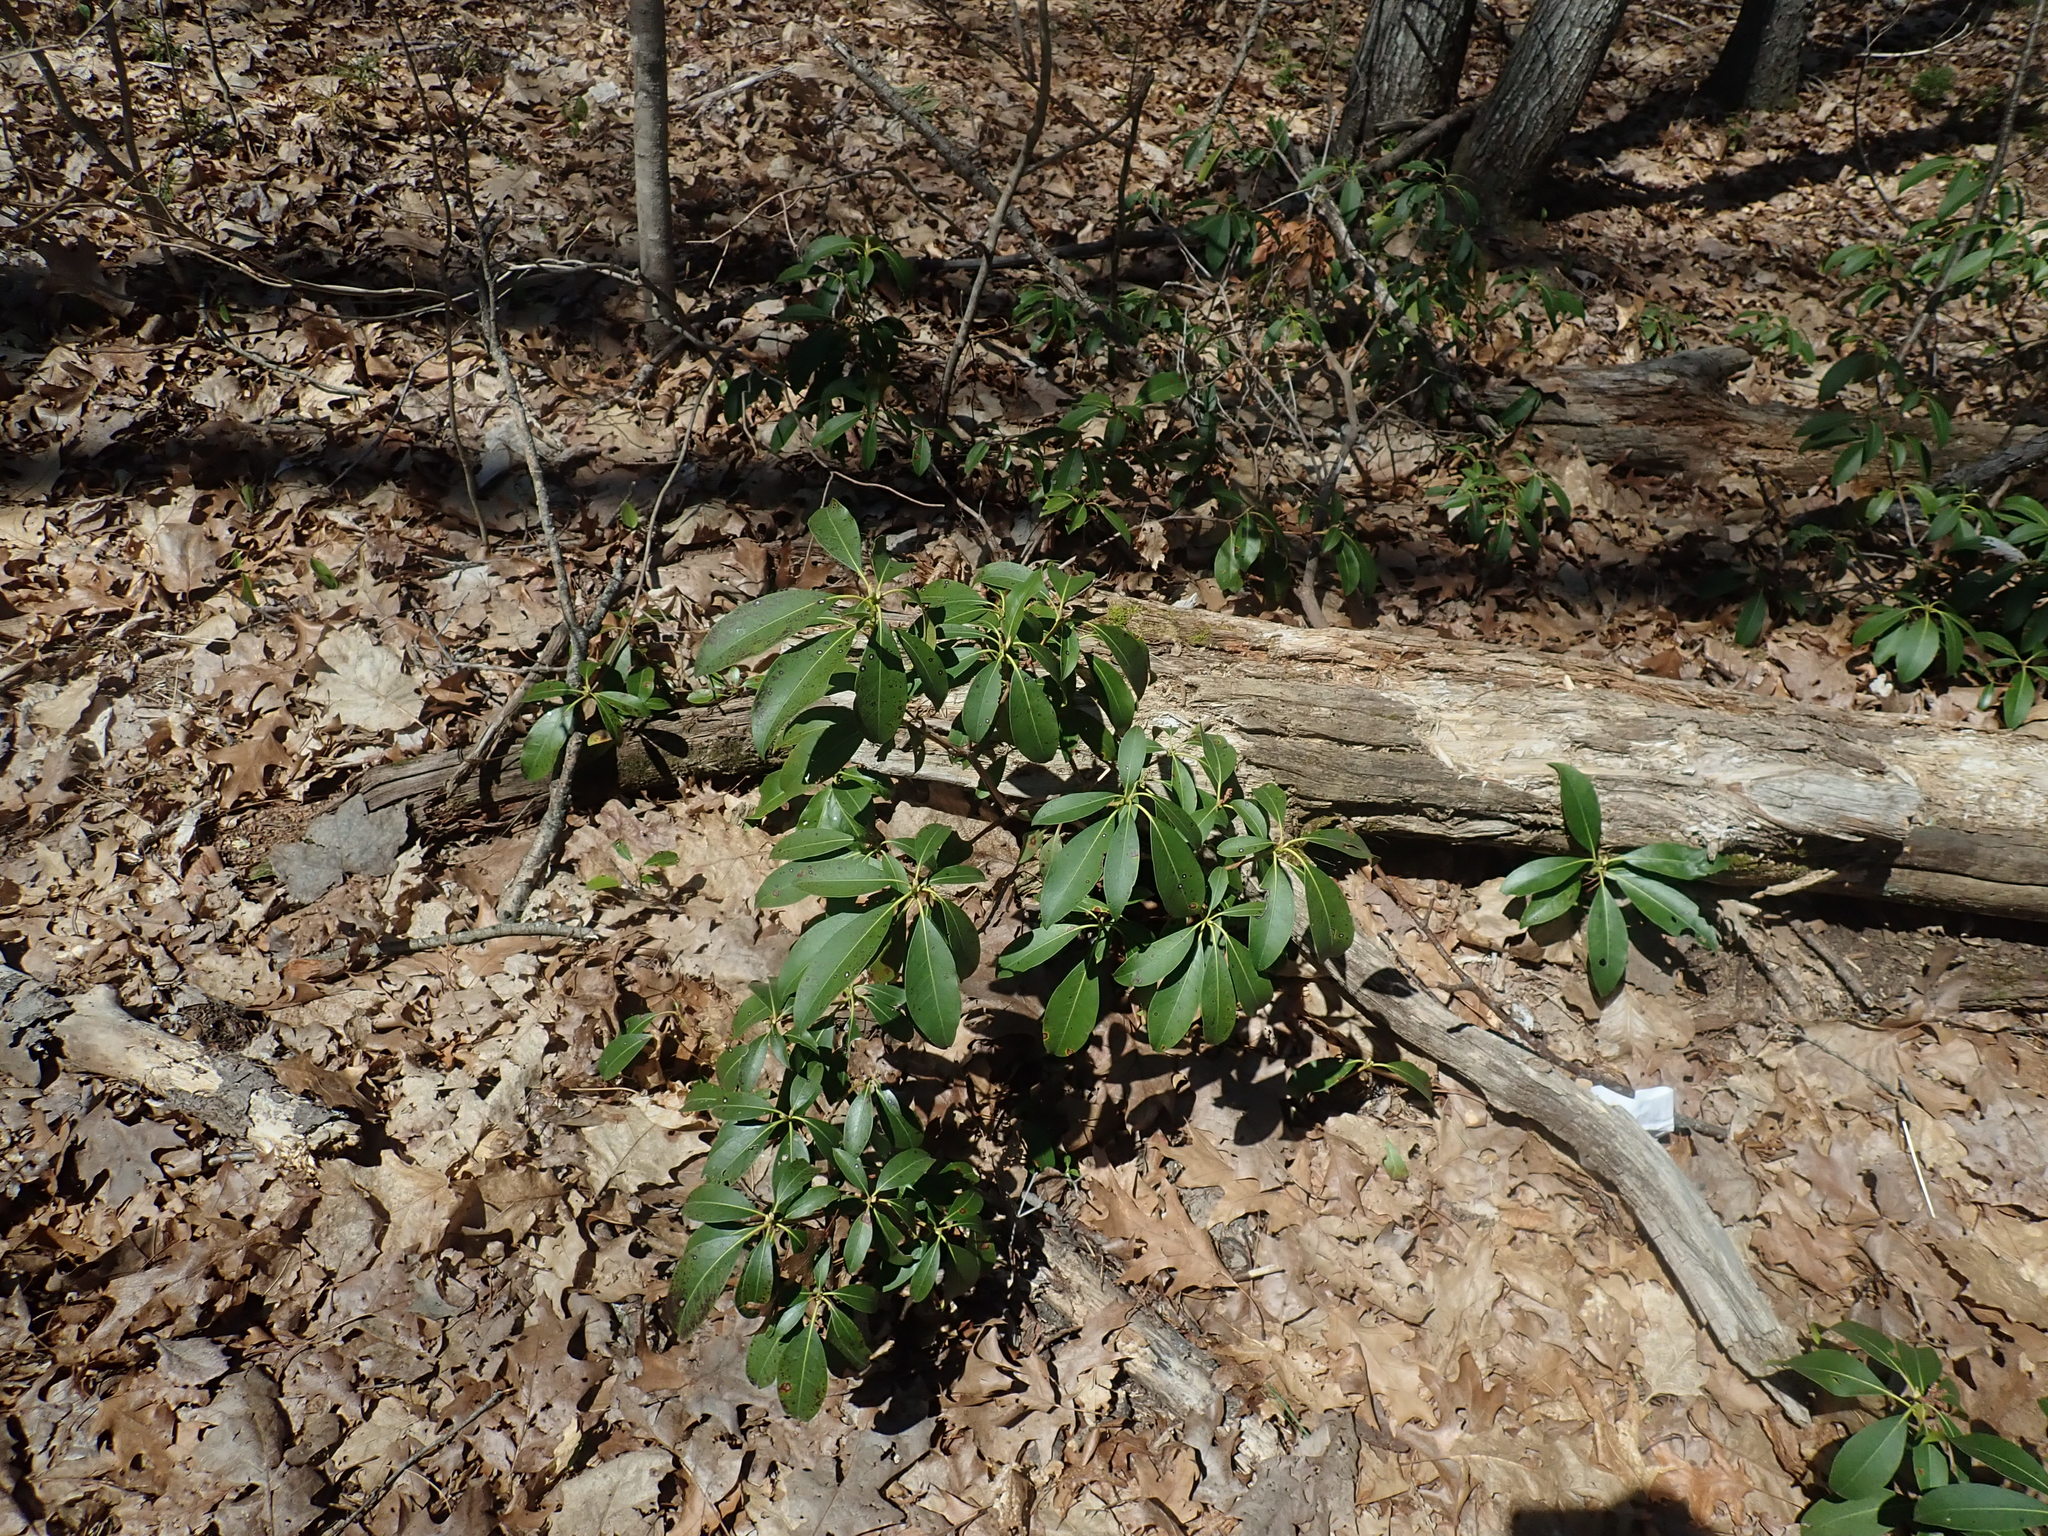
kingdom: Plantae
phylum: Tracheophyta
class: Magnoliopsida
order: Ericales
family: Ericaceae
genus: Kalmia
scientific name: Kalmia latifolia
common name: Mountain-laurel
